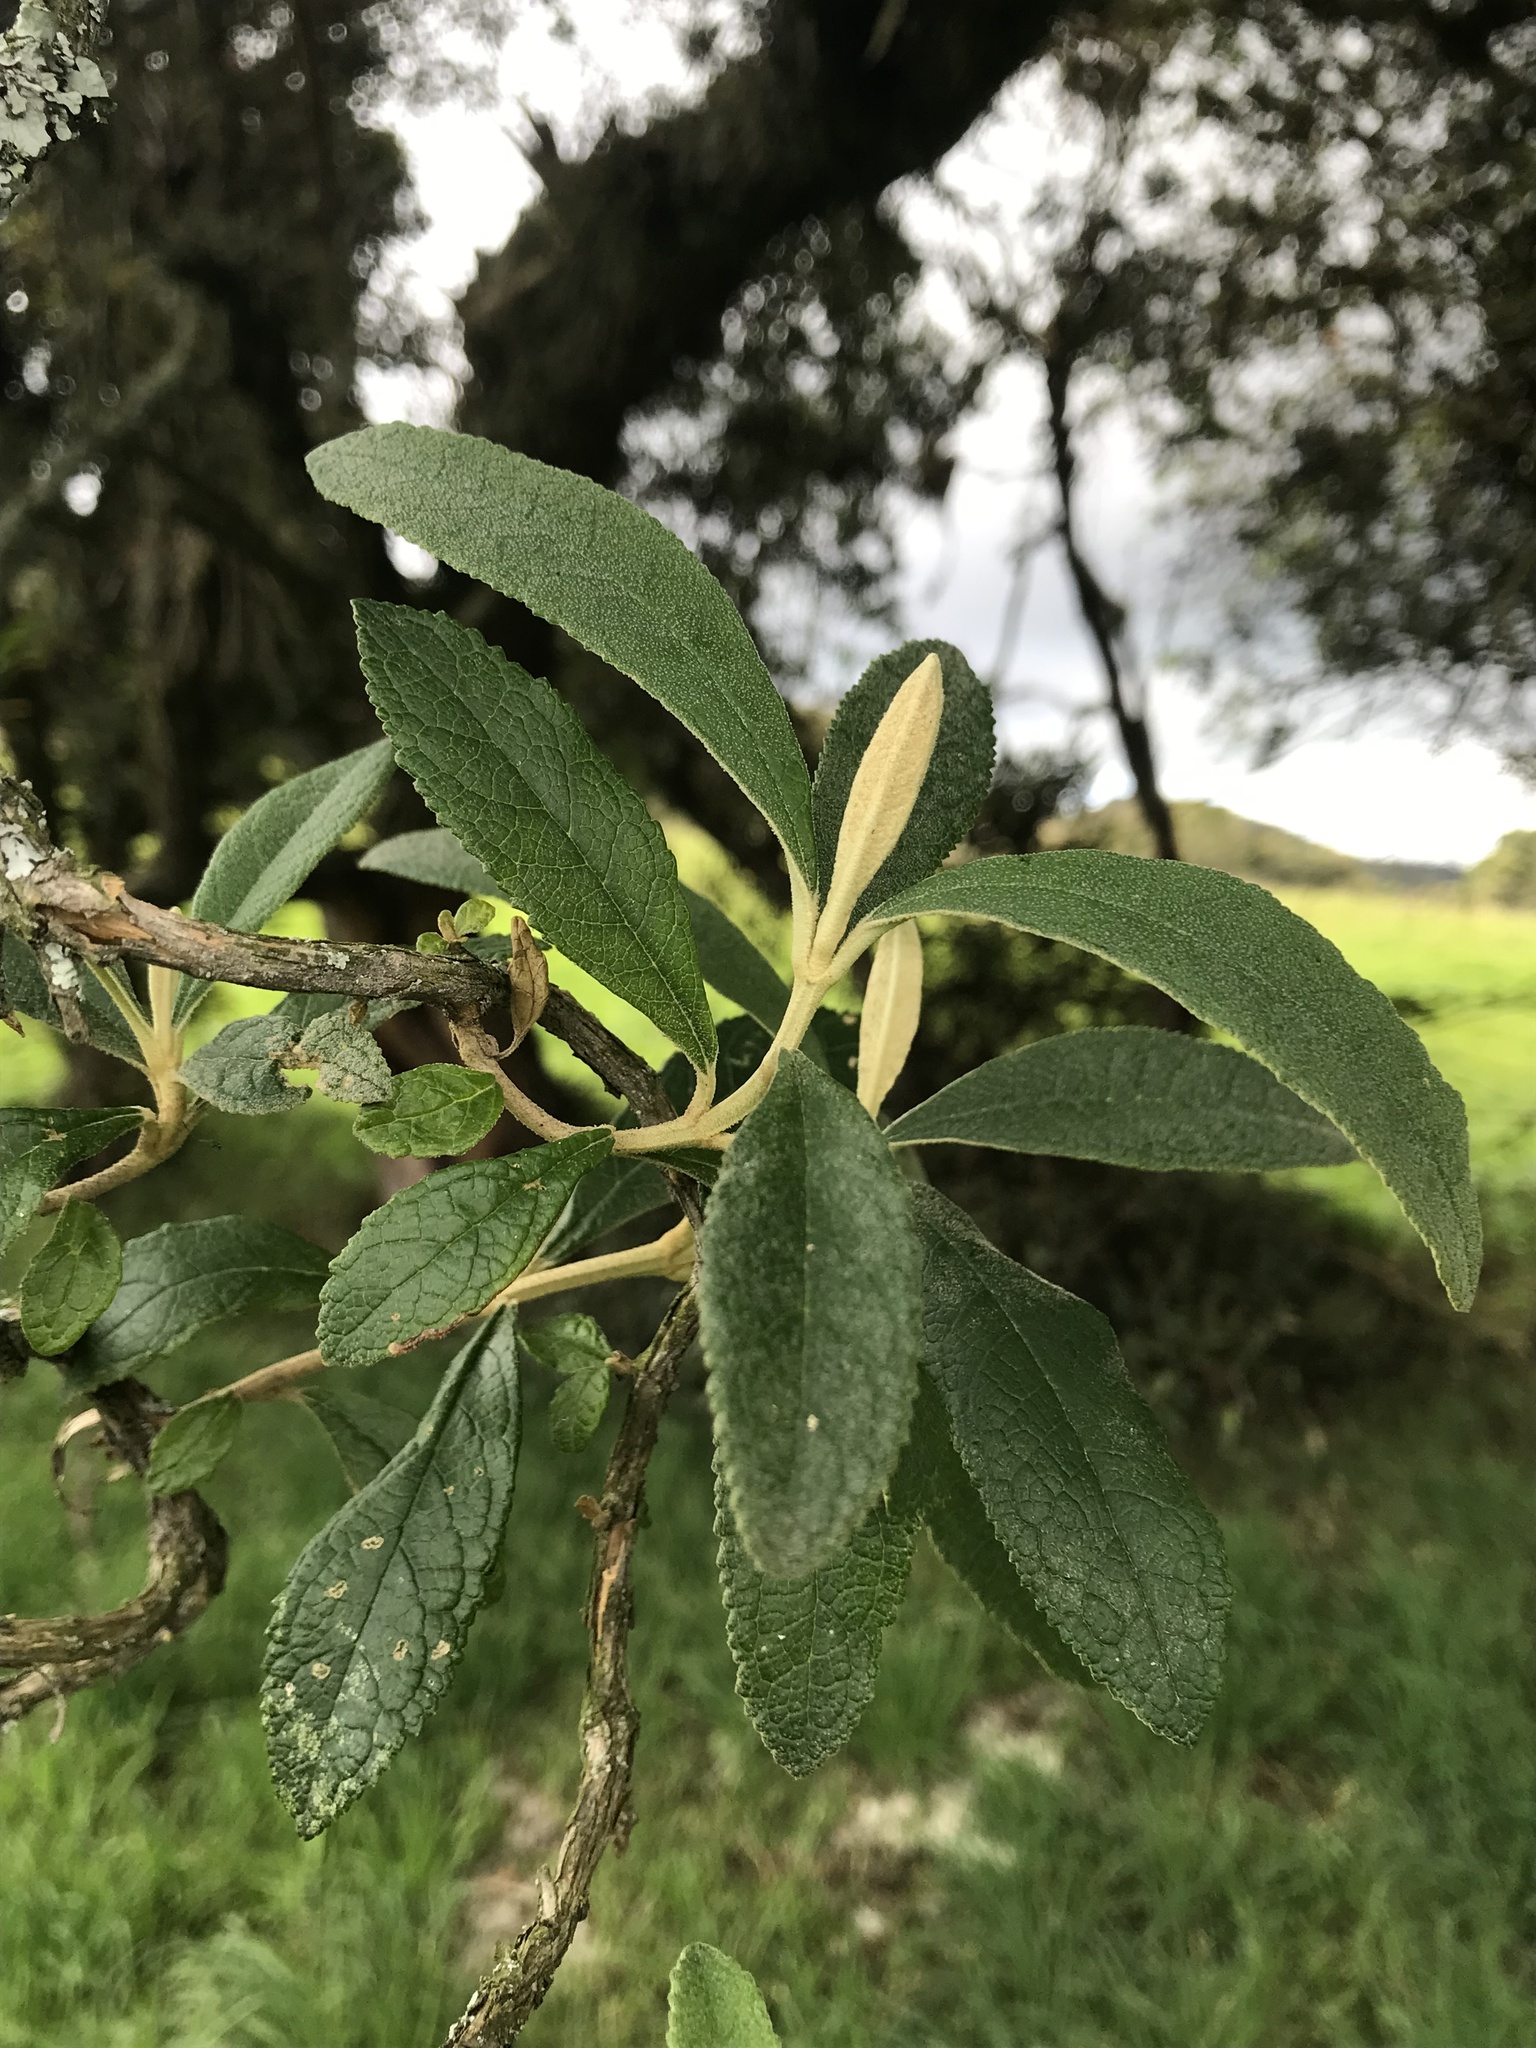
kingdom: Plantae
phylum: Tracheophyta
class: Magnoliopsida
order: Lamiales
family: Scrophulariaceae
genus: Buddleja
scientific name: Buddleja incana
